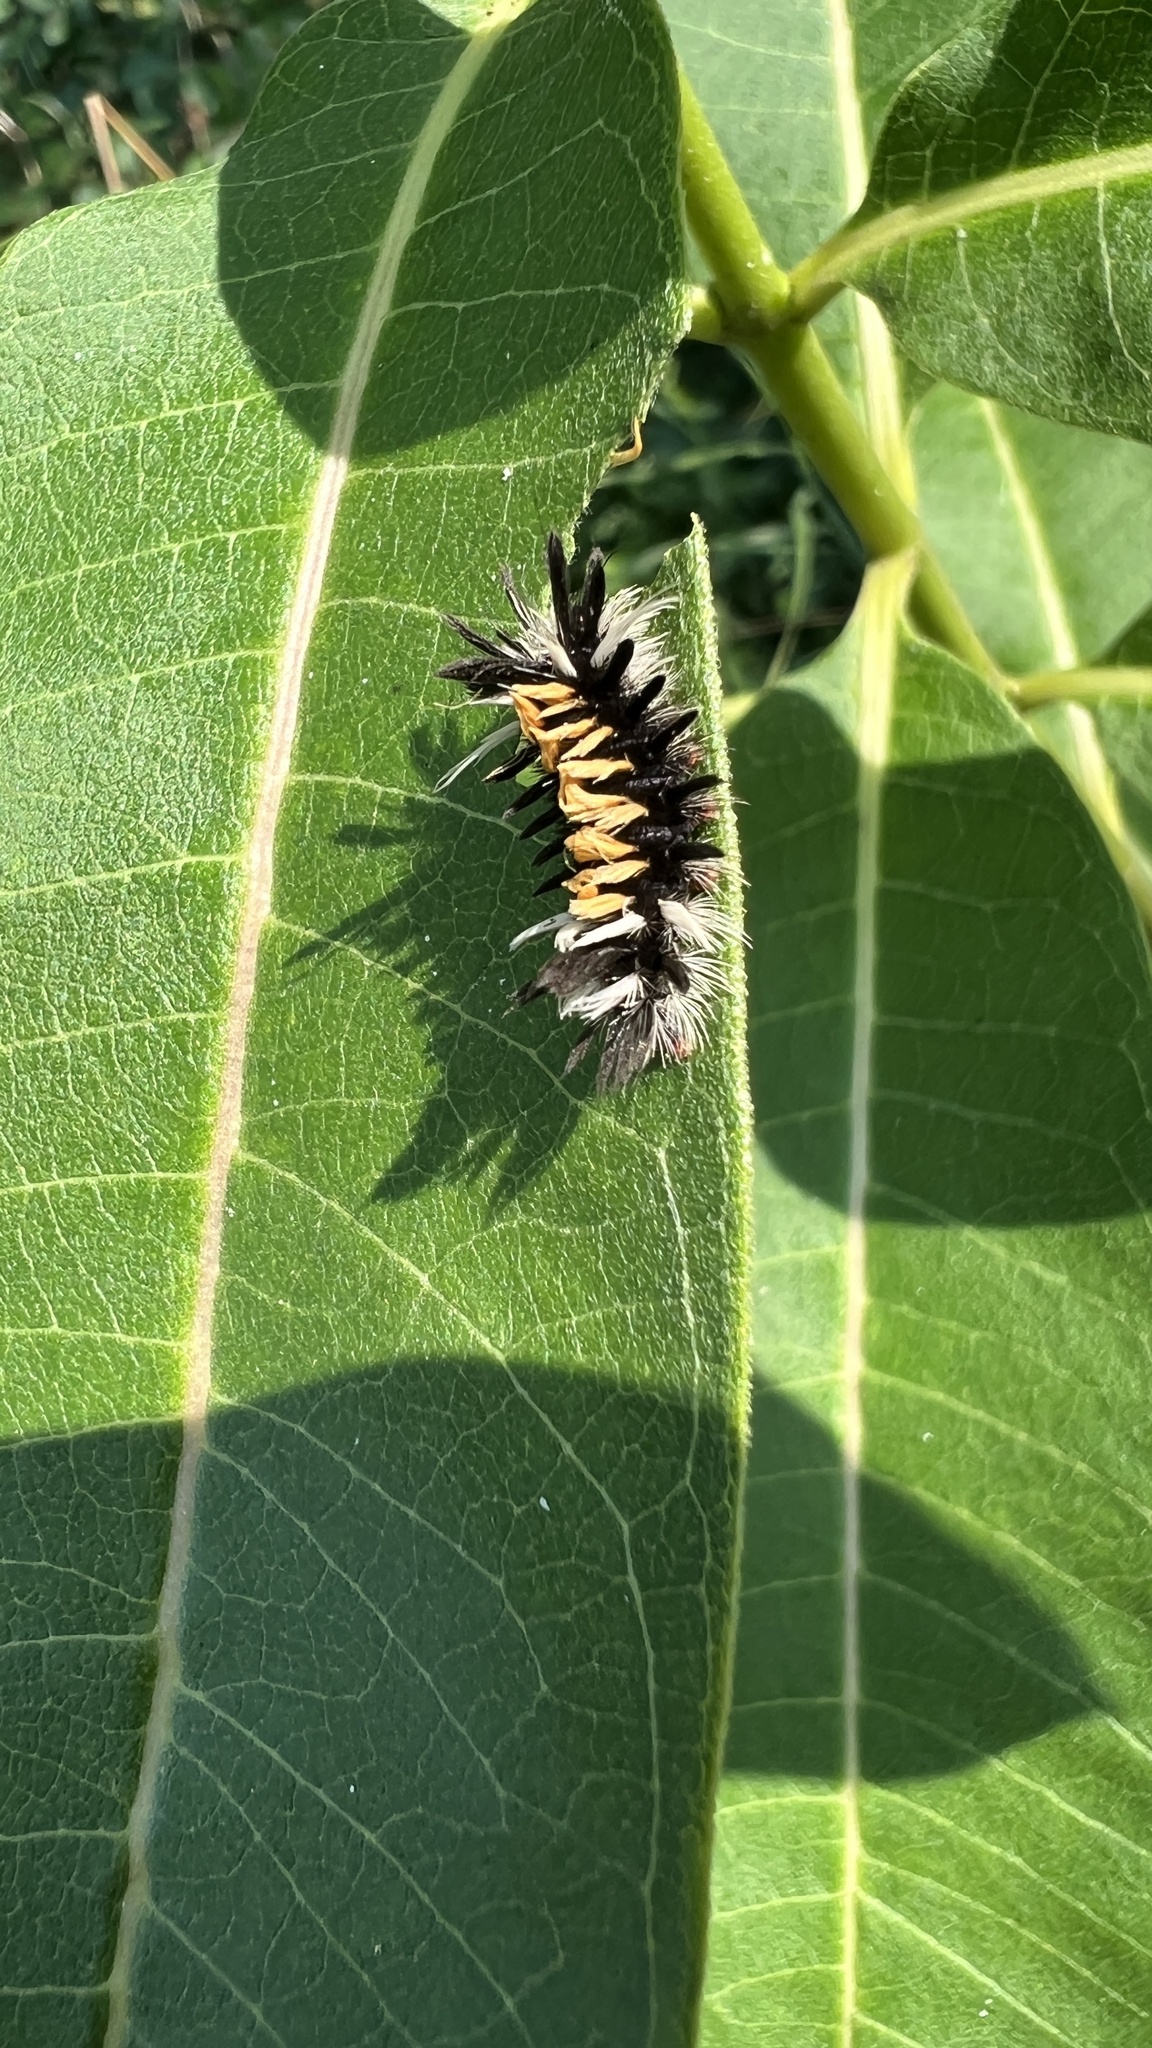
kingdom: Animalia
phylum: Arthropoda
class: Insecta
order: Lepidoptera
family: Erebidae
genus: Euchaetes
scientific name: Euchaetes egle
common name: Milkweed tussock moth
